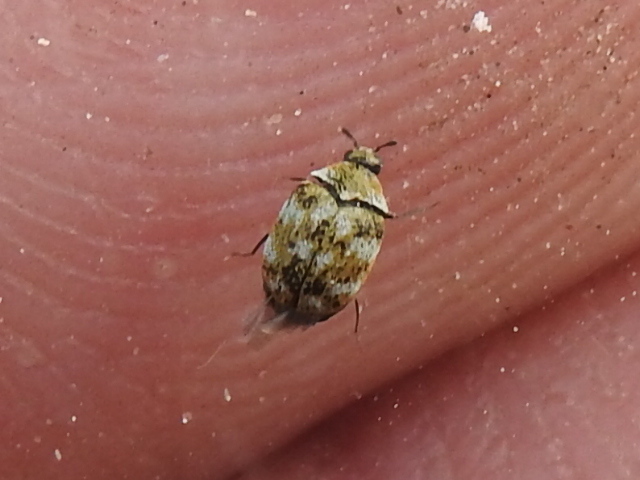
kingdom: Animalia
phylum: Arthropoda
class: Insecta
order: Coleoptera
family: Dermestidae
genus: Anthrenus
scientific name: Anthrenus verbasci
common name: Varied carpet beetle
